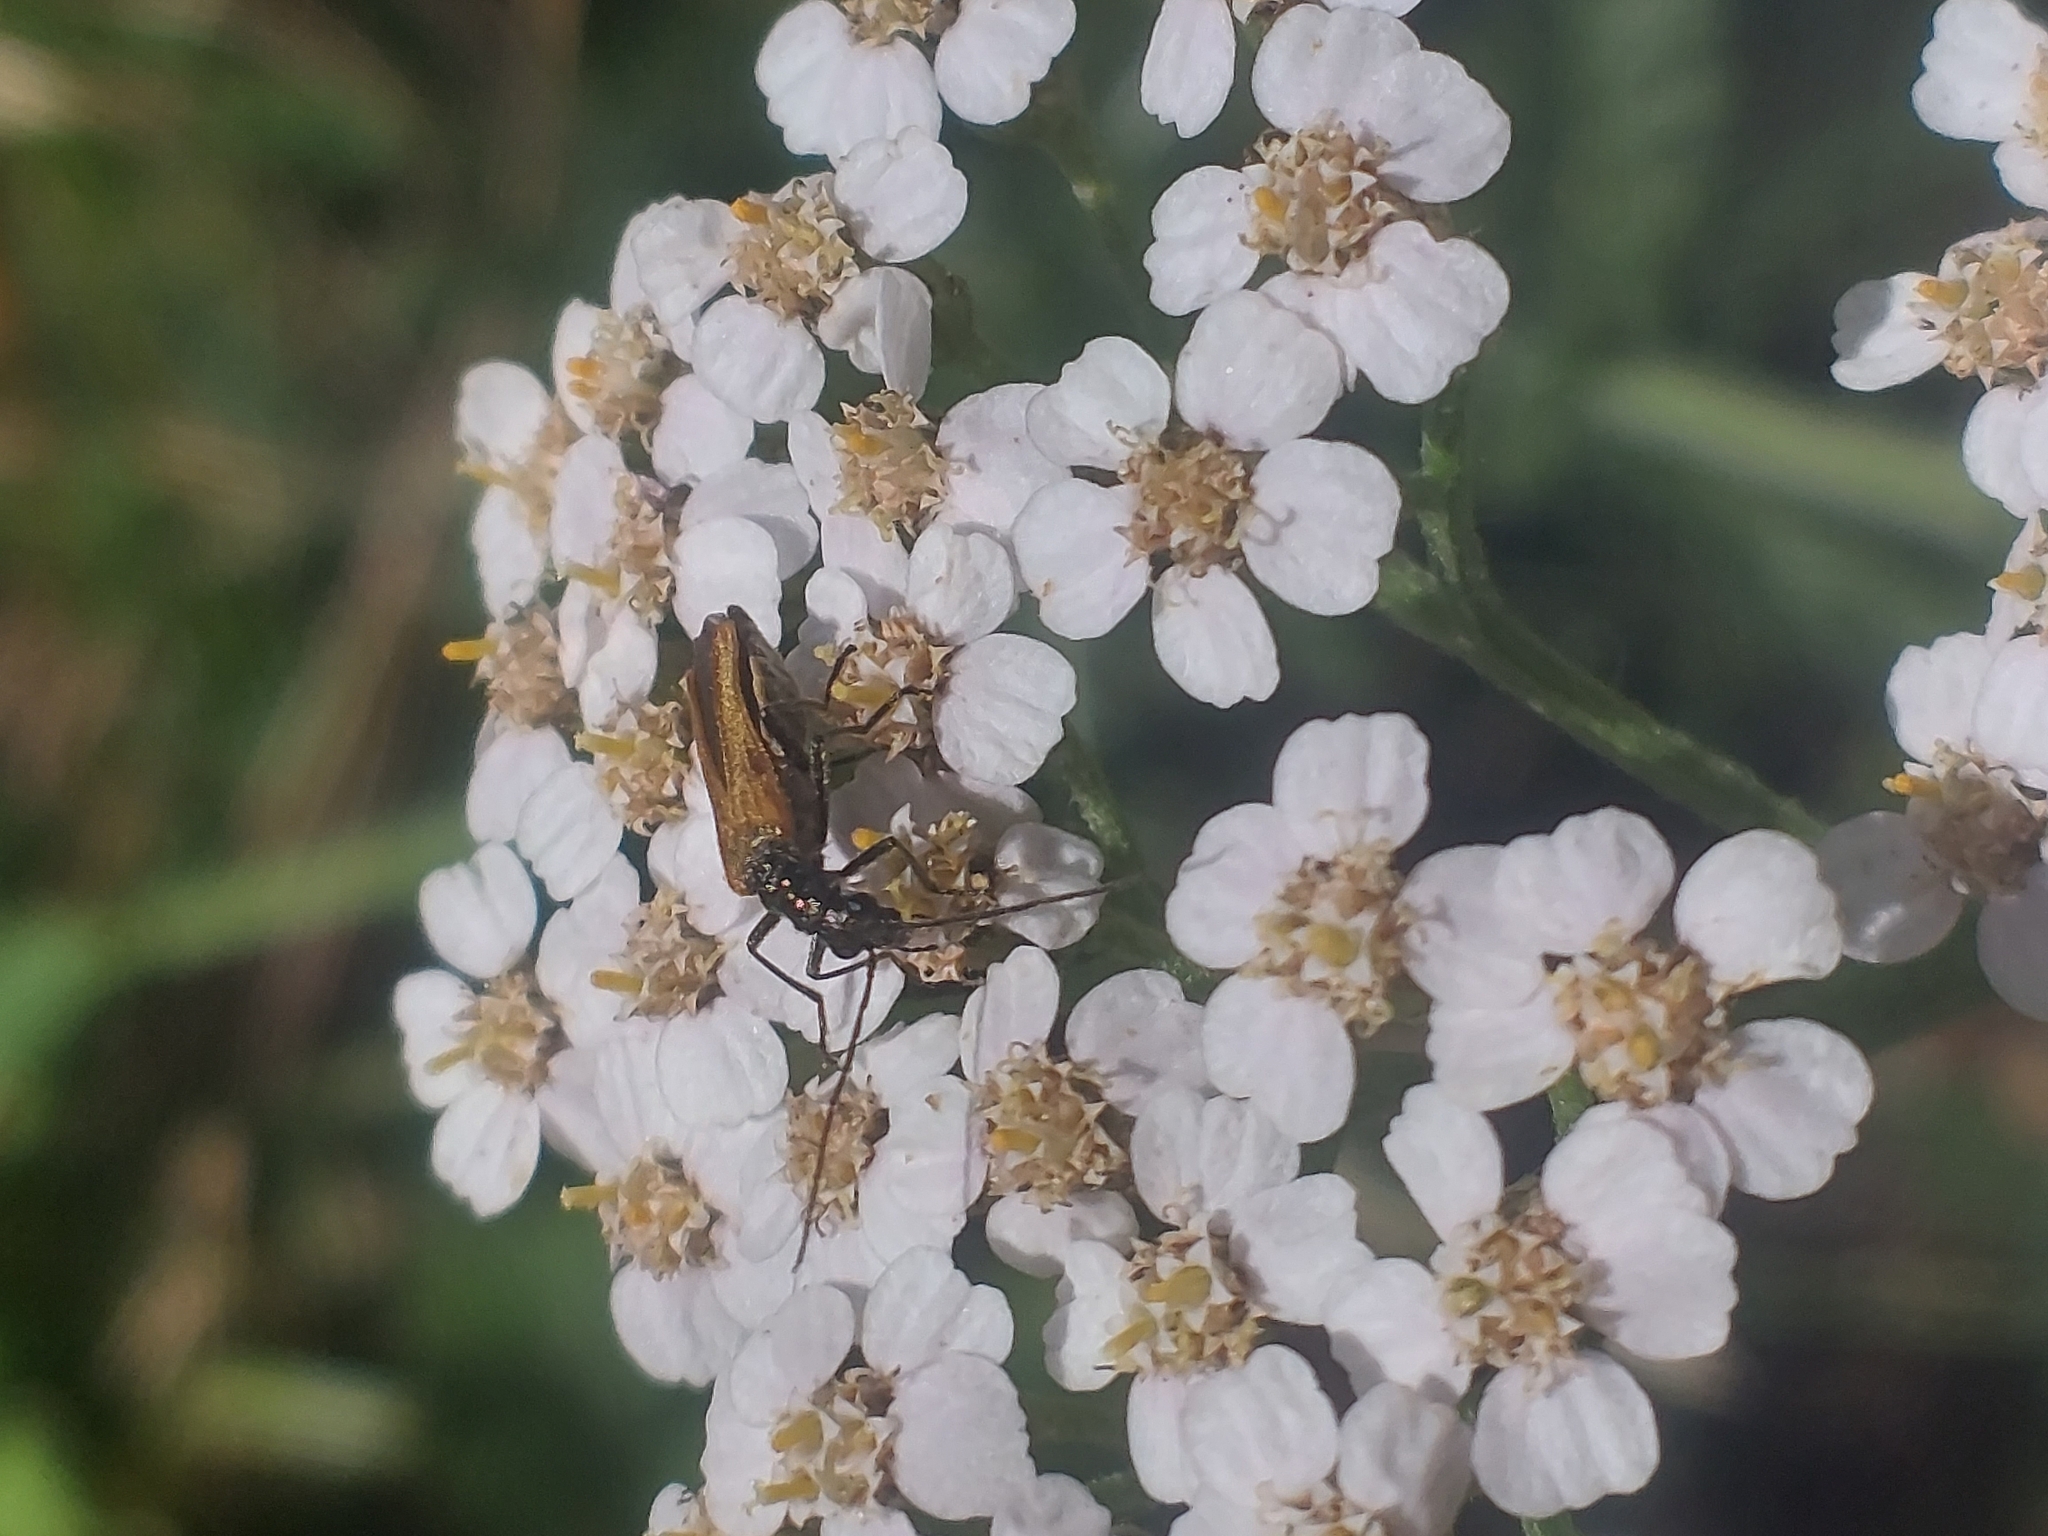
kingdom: Animalia
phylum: Arthropoda
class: Insecta
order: Coleoptera
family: Oedemeridae
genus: Oedemera
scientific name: Oedemera femorata
